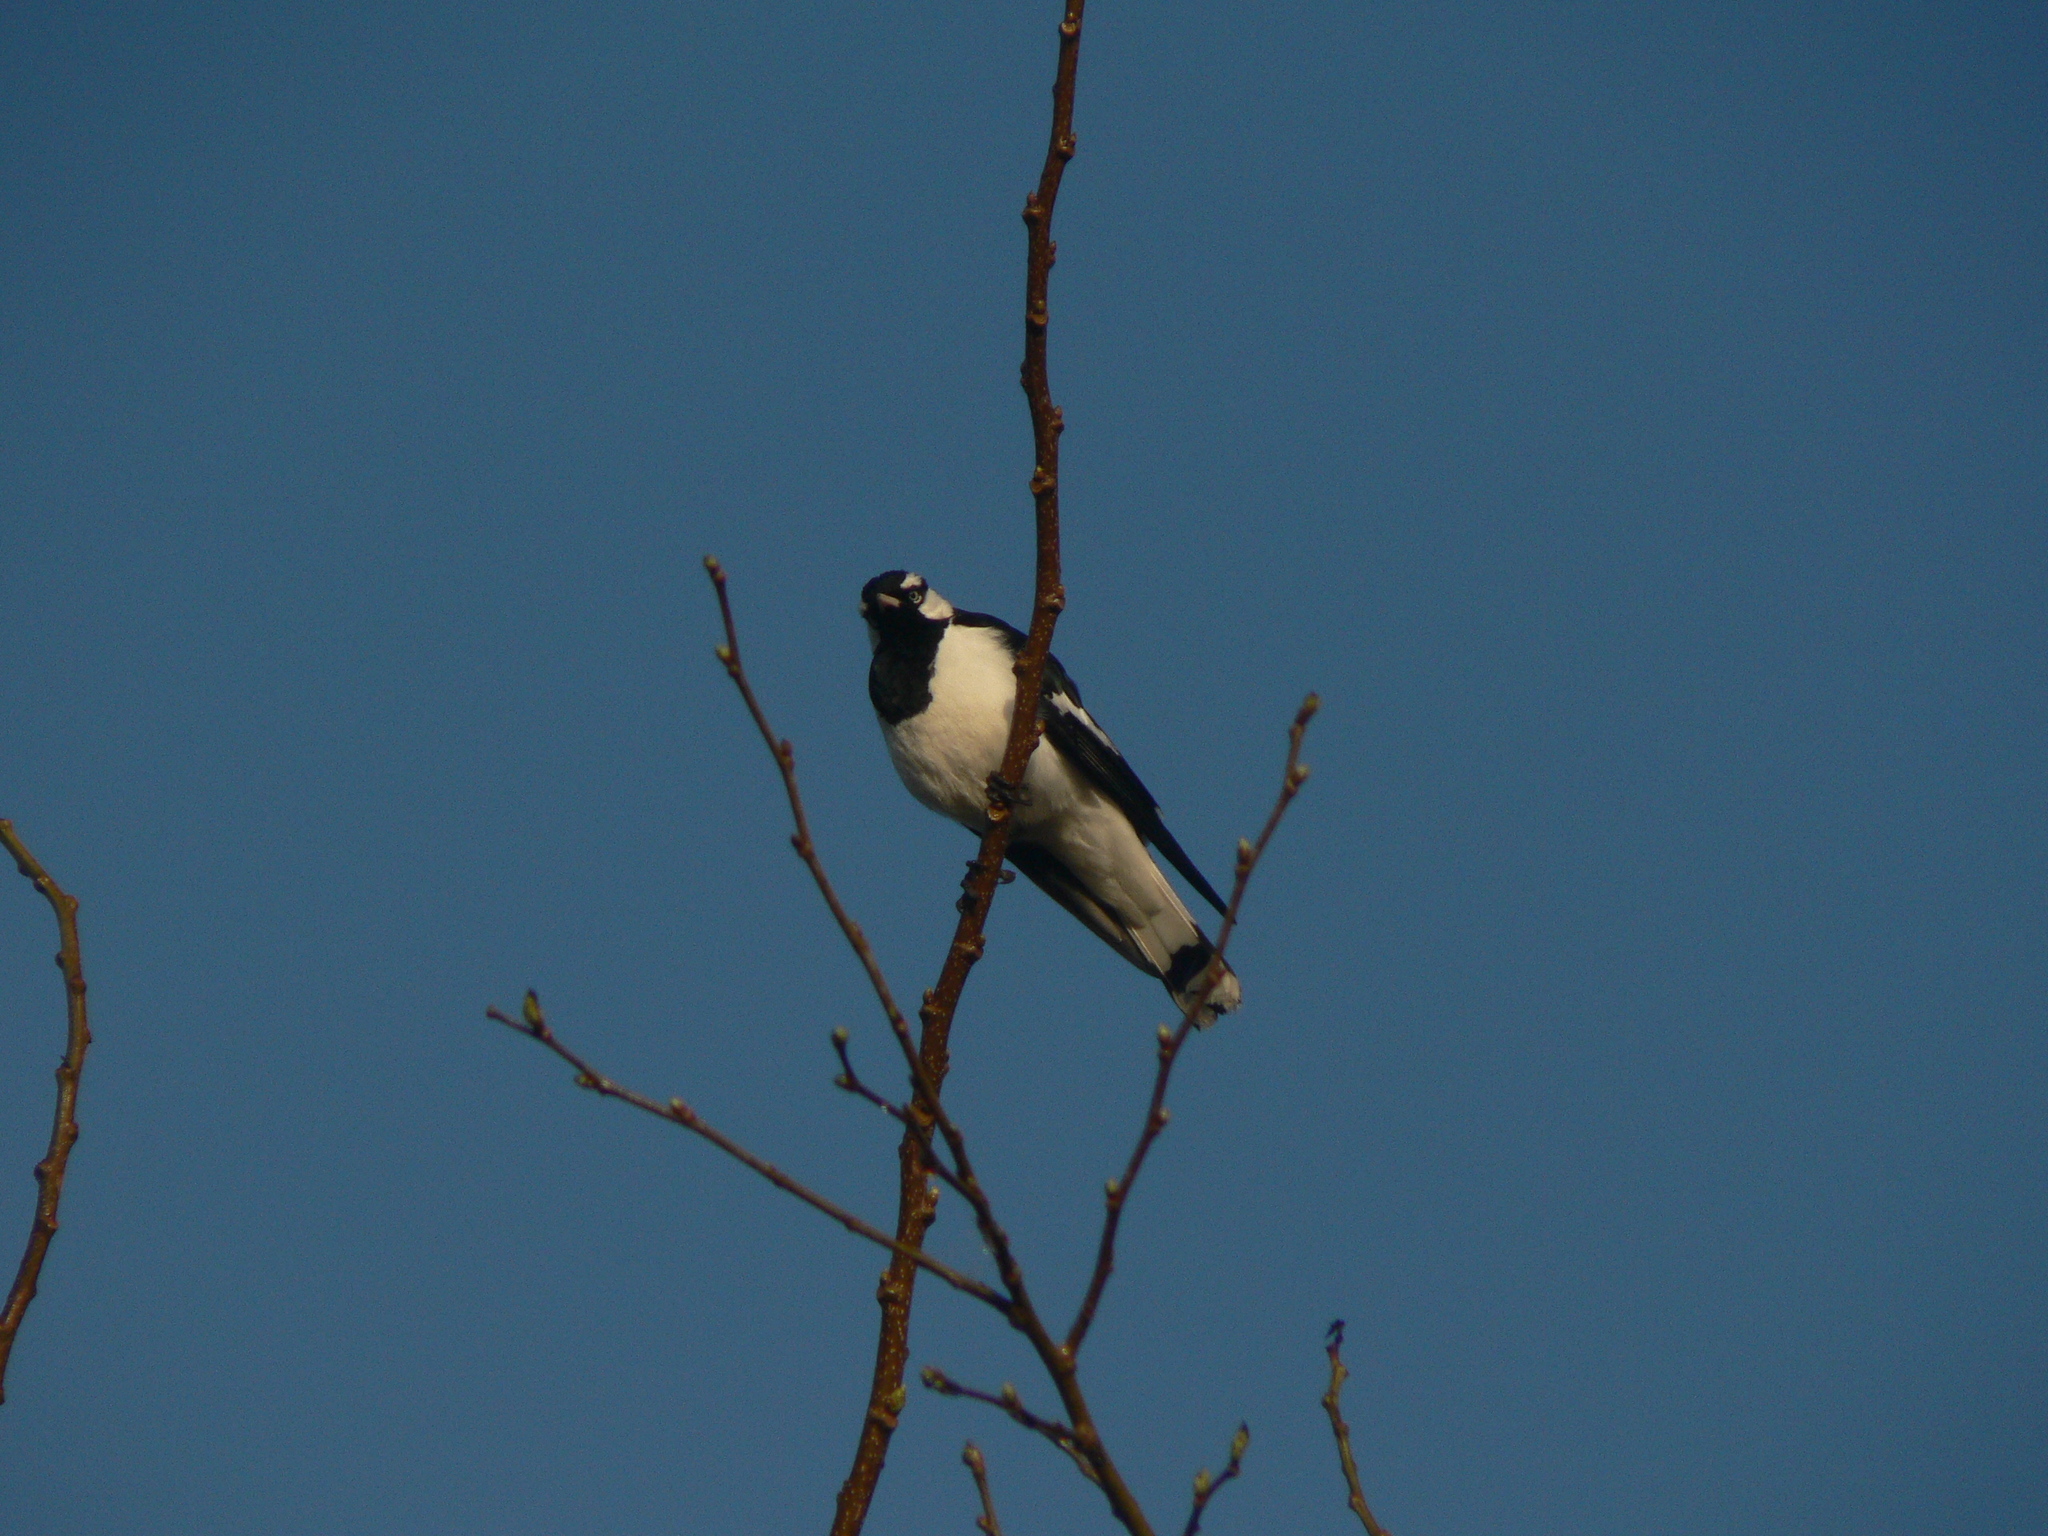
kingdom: Animalia
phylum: Chordata
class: Aves
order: Passeriformes
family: Monarchidae
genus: Grallina
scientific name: Grallina cyanoleuca
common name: Magpie-lark
